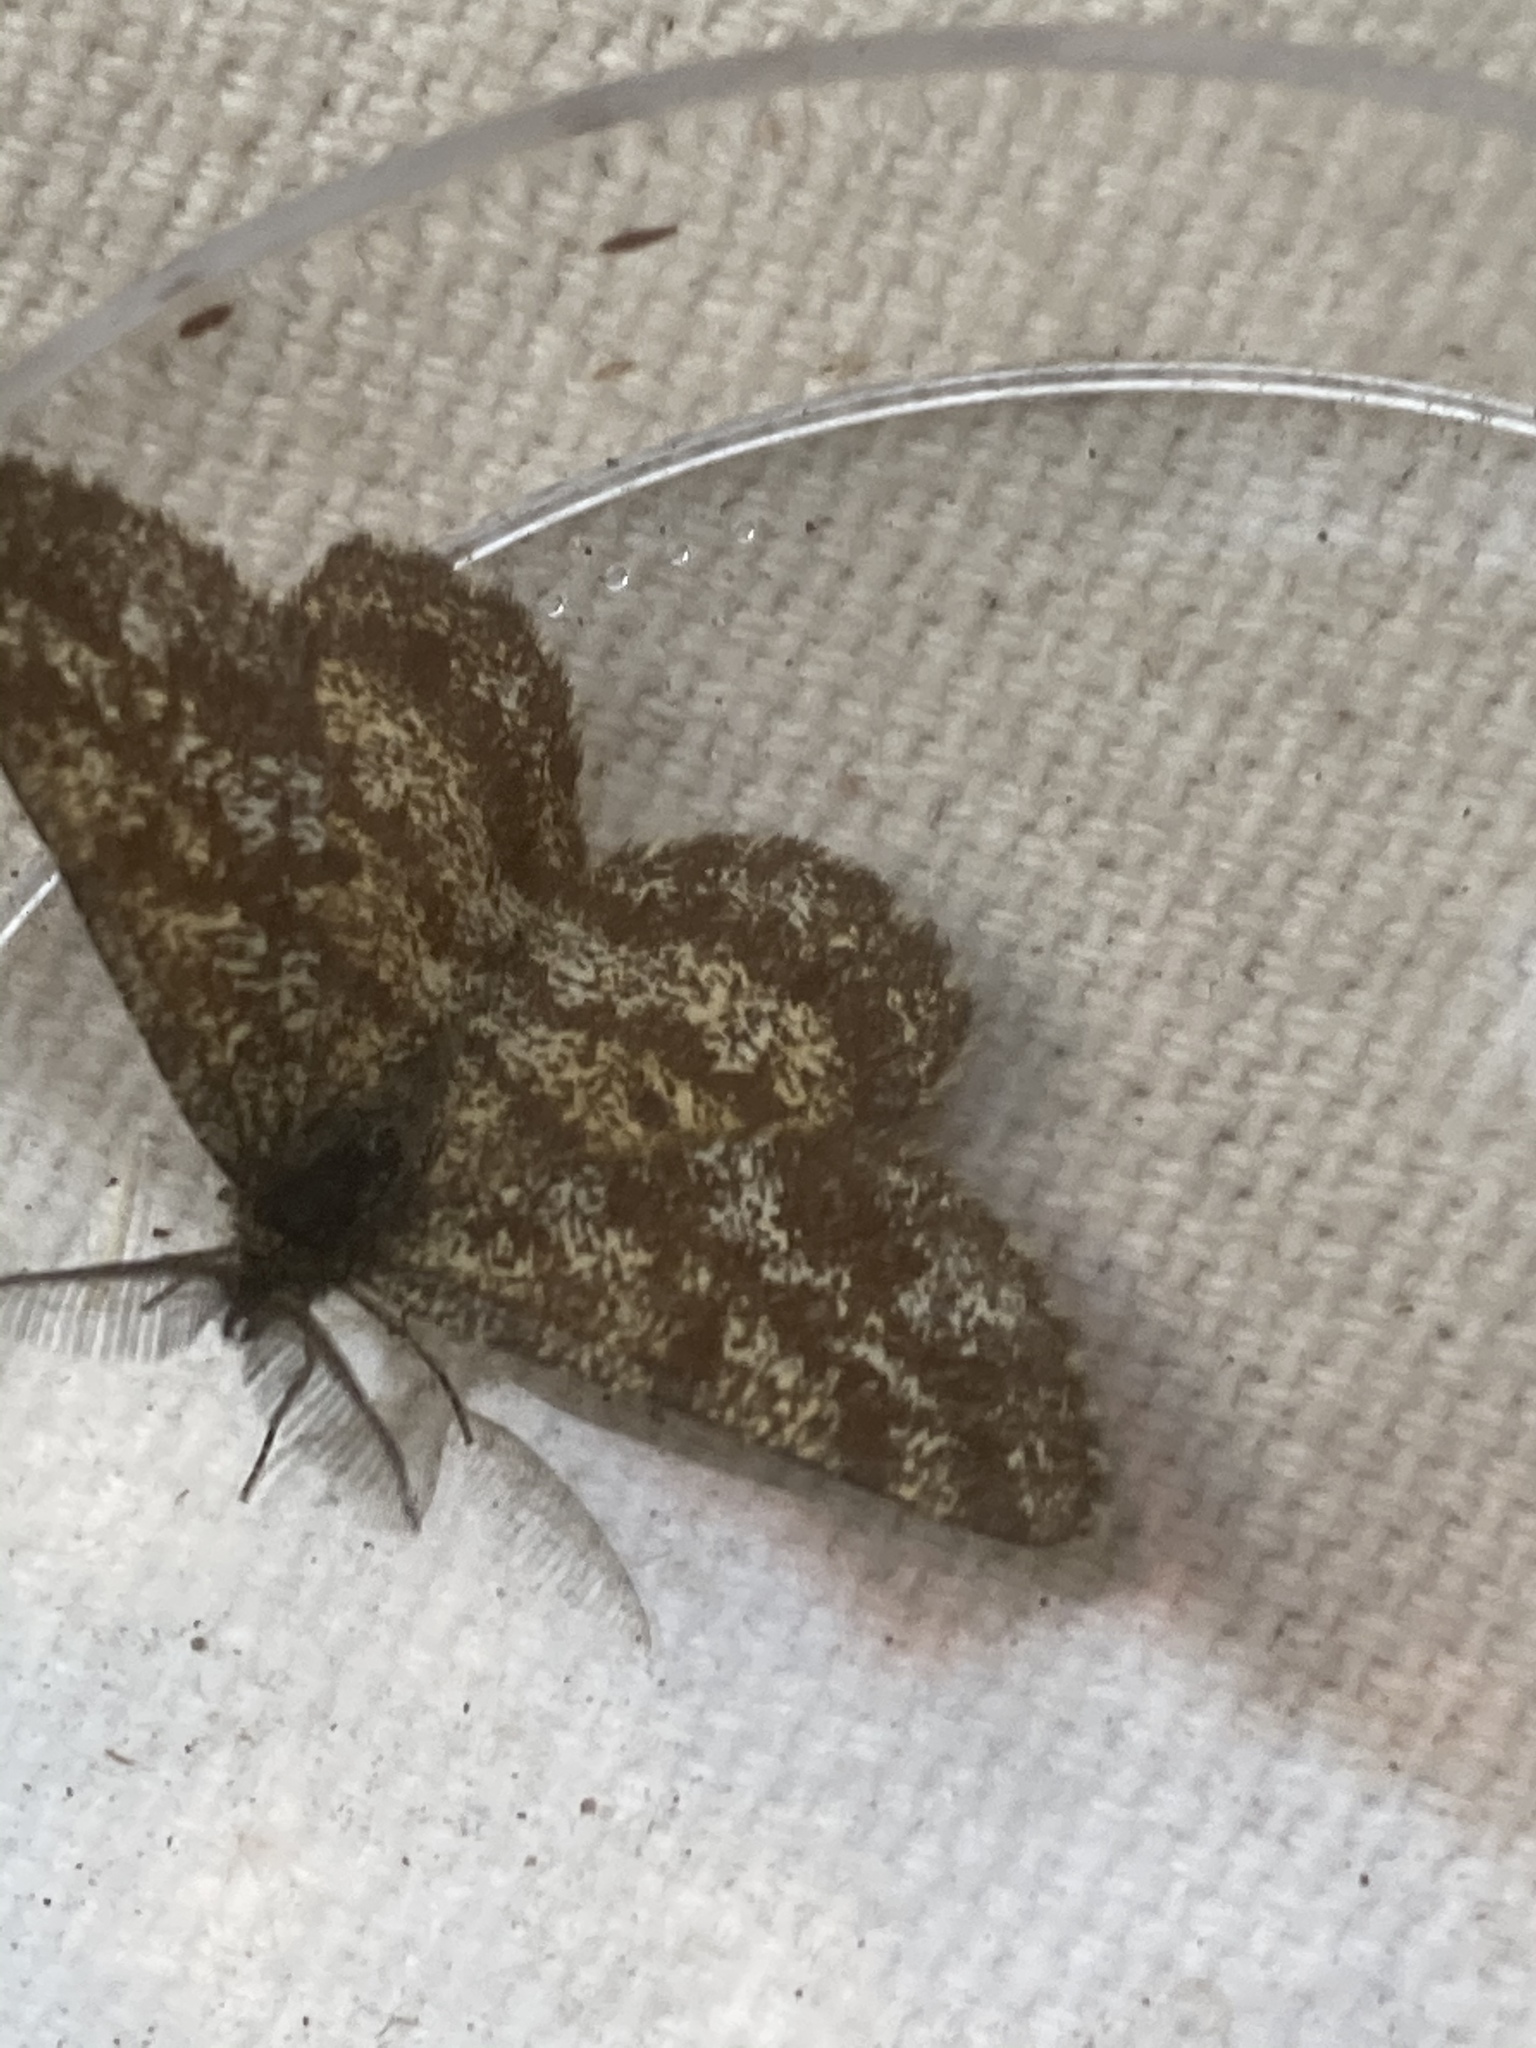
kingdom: Animalia
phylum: Arthropoda
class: Insecta
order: Lepidoptera
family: Geometridae
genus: Ematurga
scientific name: Ematurga atomaria
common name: Common heath
